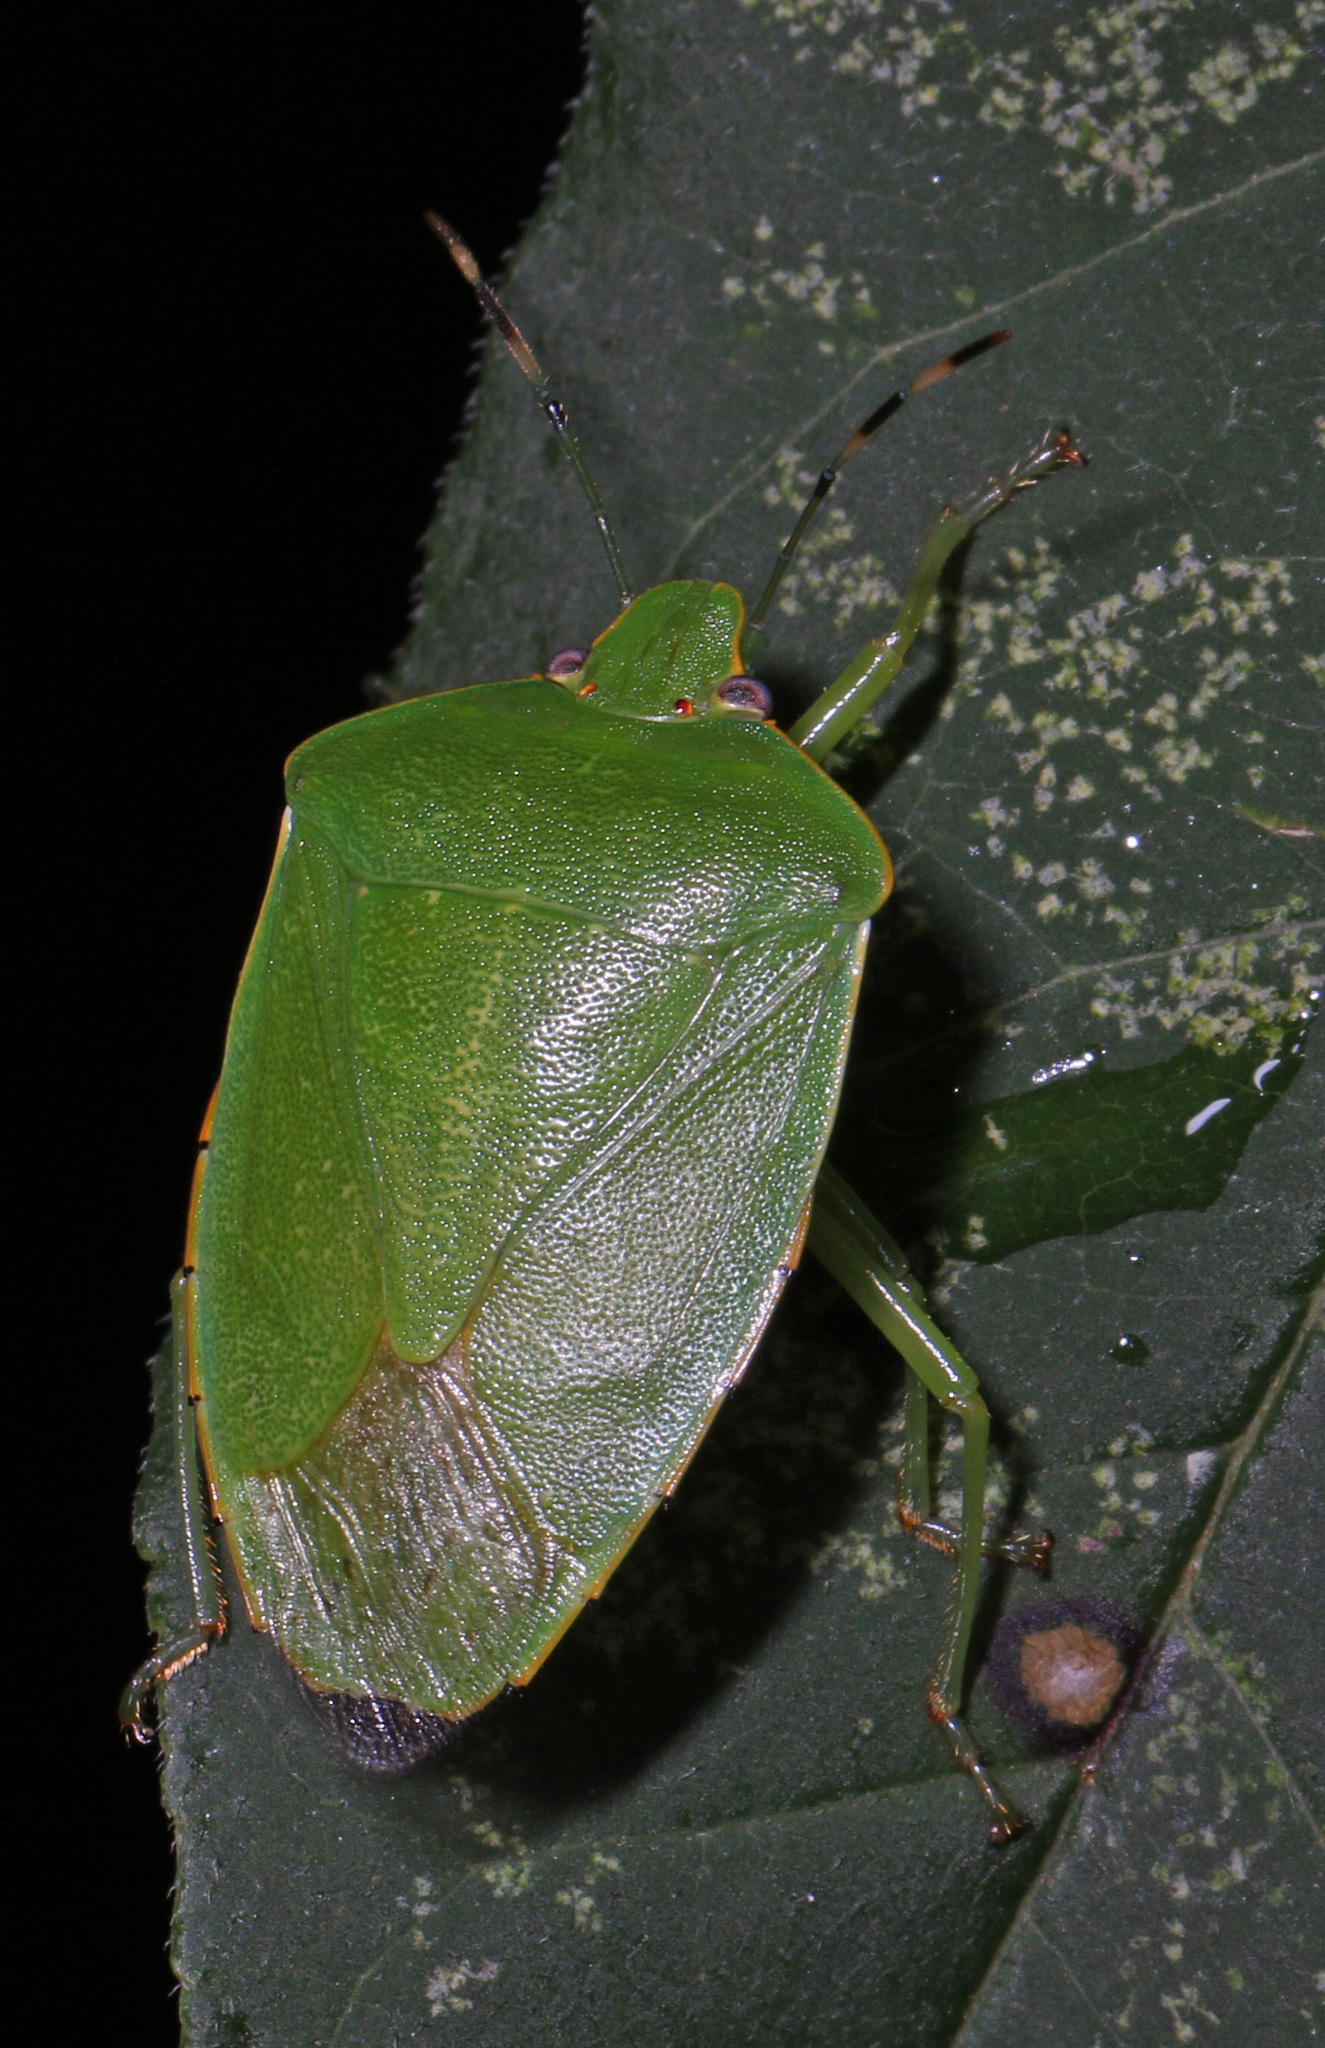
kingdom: Animalia
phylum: Arthropoda
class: Insecta
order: Hemiptera
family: Pentatomidae
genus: Chinavia
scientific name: Chinavia hilaris
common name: Green stink bug
